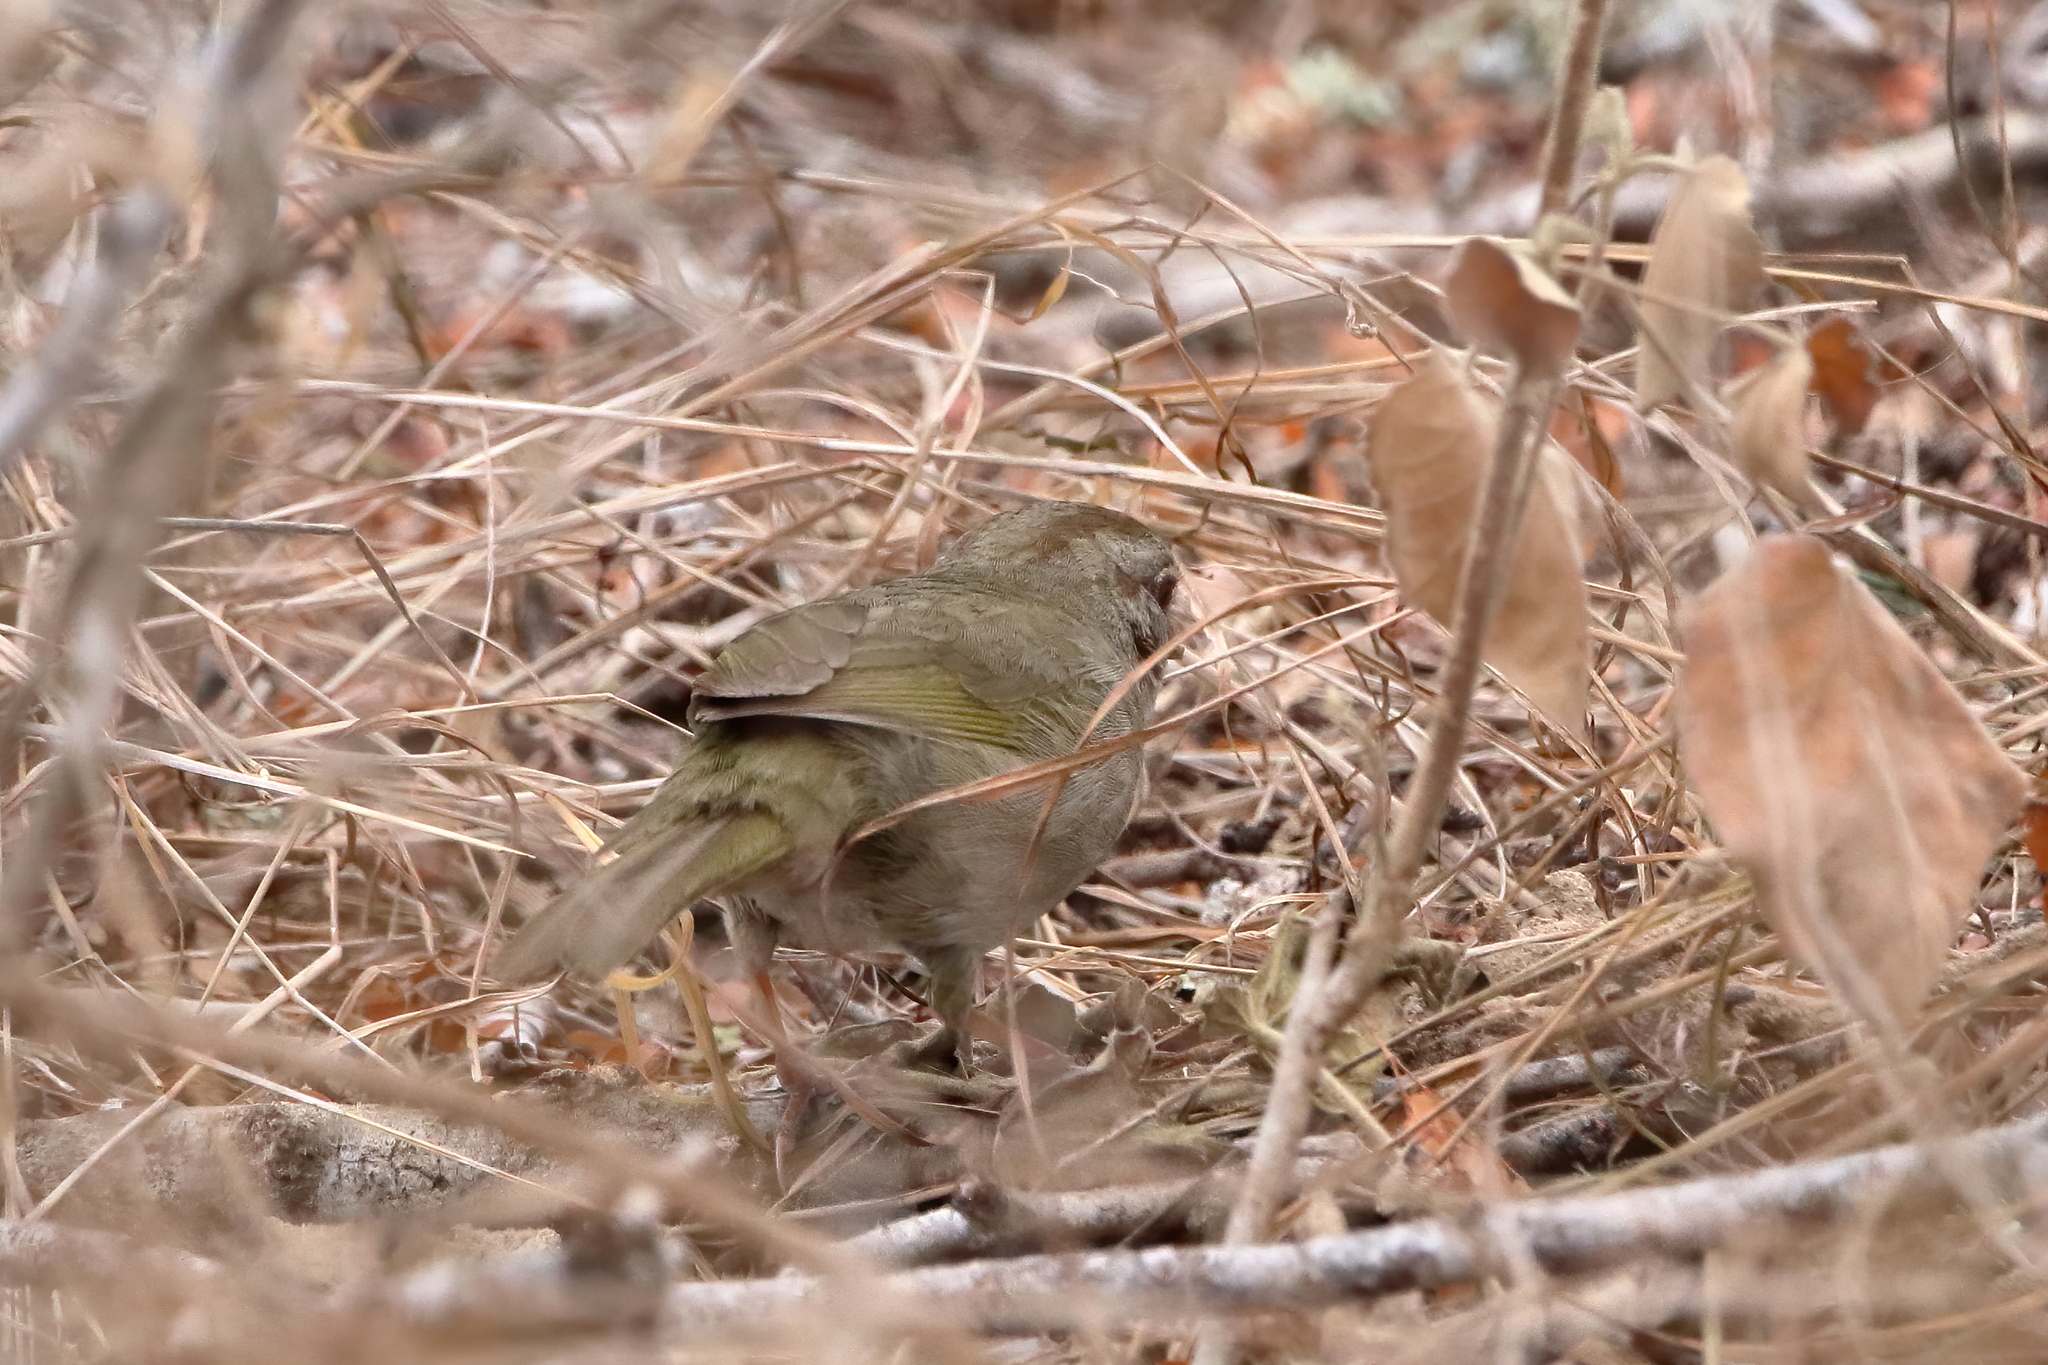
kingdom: Animalia
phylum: Chordata
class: Aves
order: Passeriformes
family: Passerellidae
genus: Arremonops
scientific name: Arremonops rufivirgatus
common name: Olive sparrow
